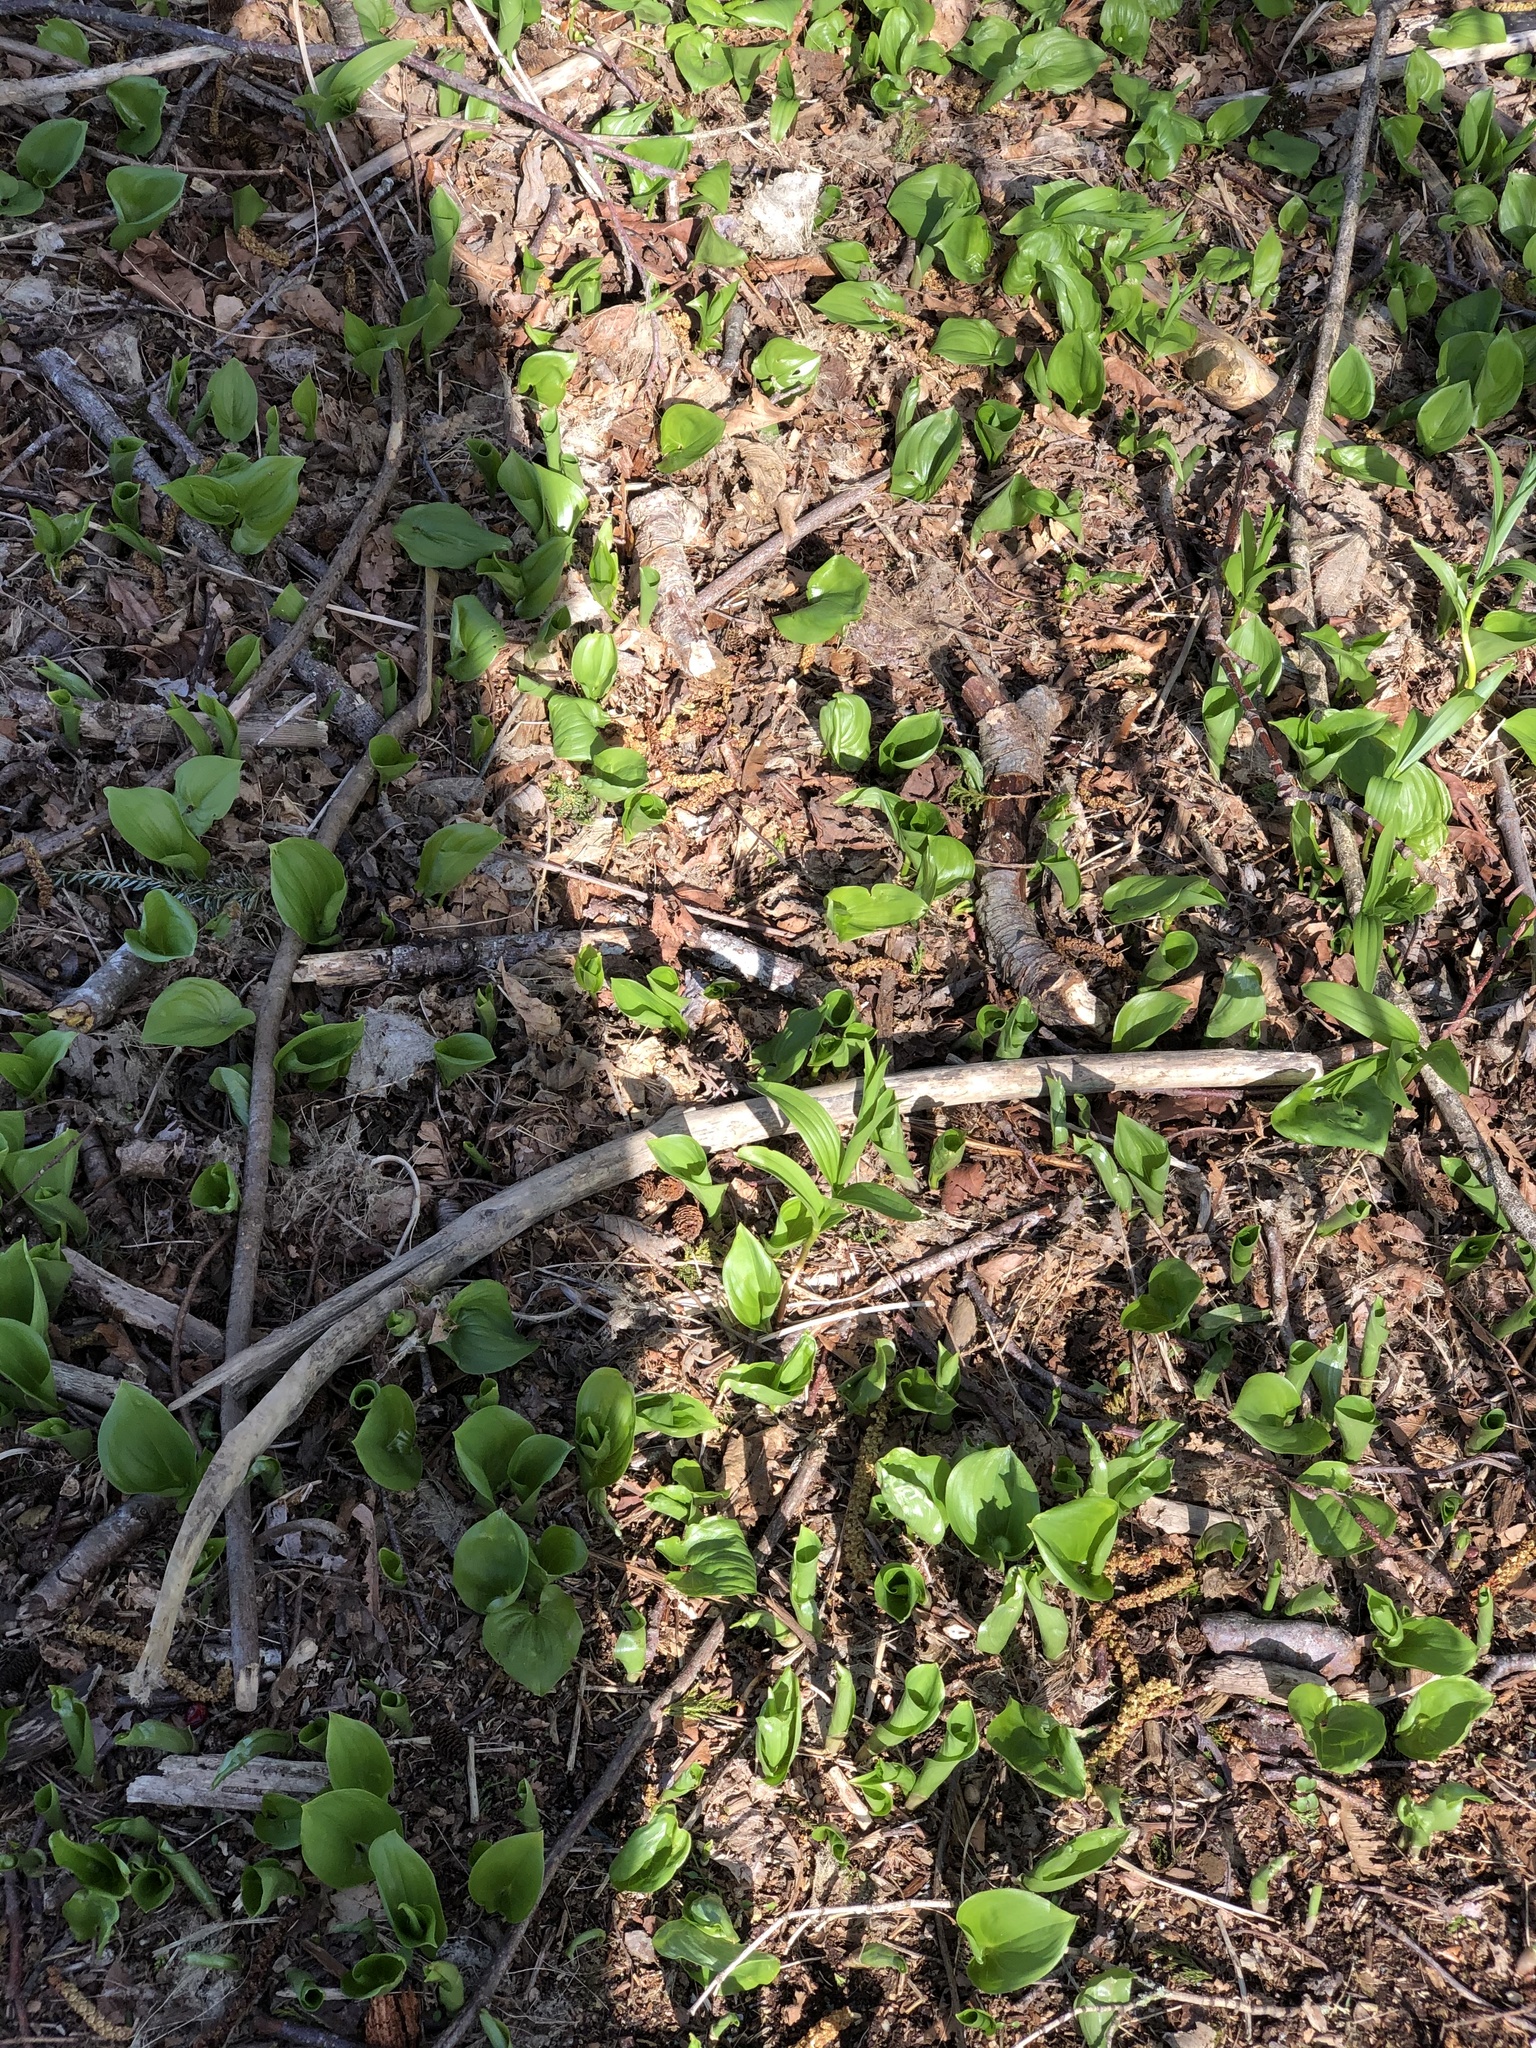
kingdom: Plantae
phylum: Tracheophyta
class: Liliopsida
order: Asparagales
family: Asparagaceae
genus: Maianthemum
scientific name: Maianthemum dilatatum
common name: False lily-of-the-valley
